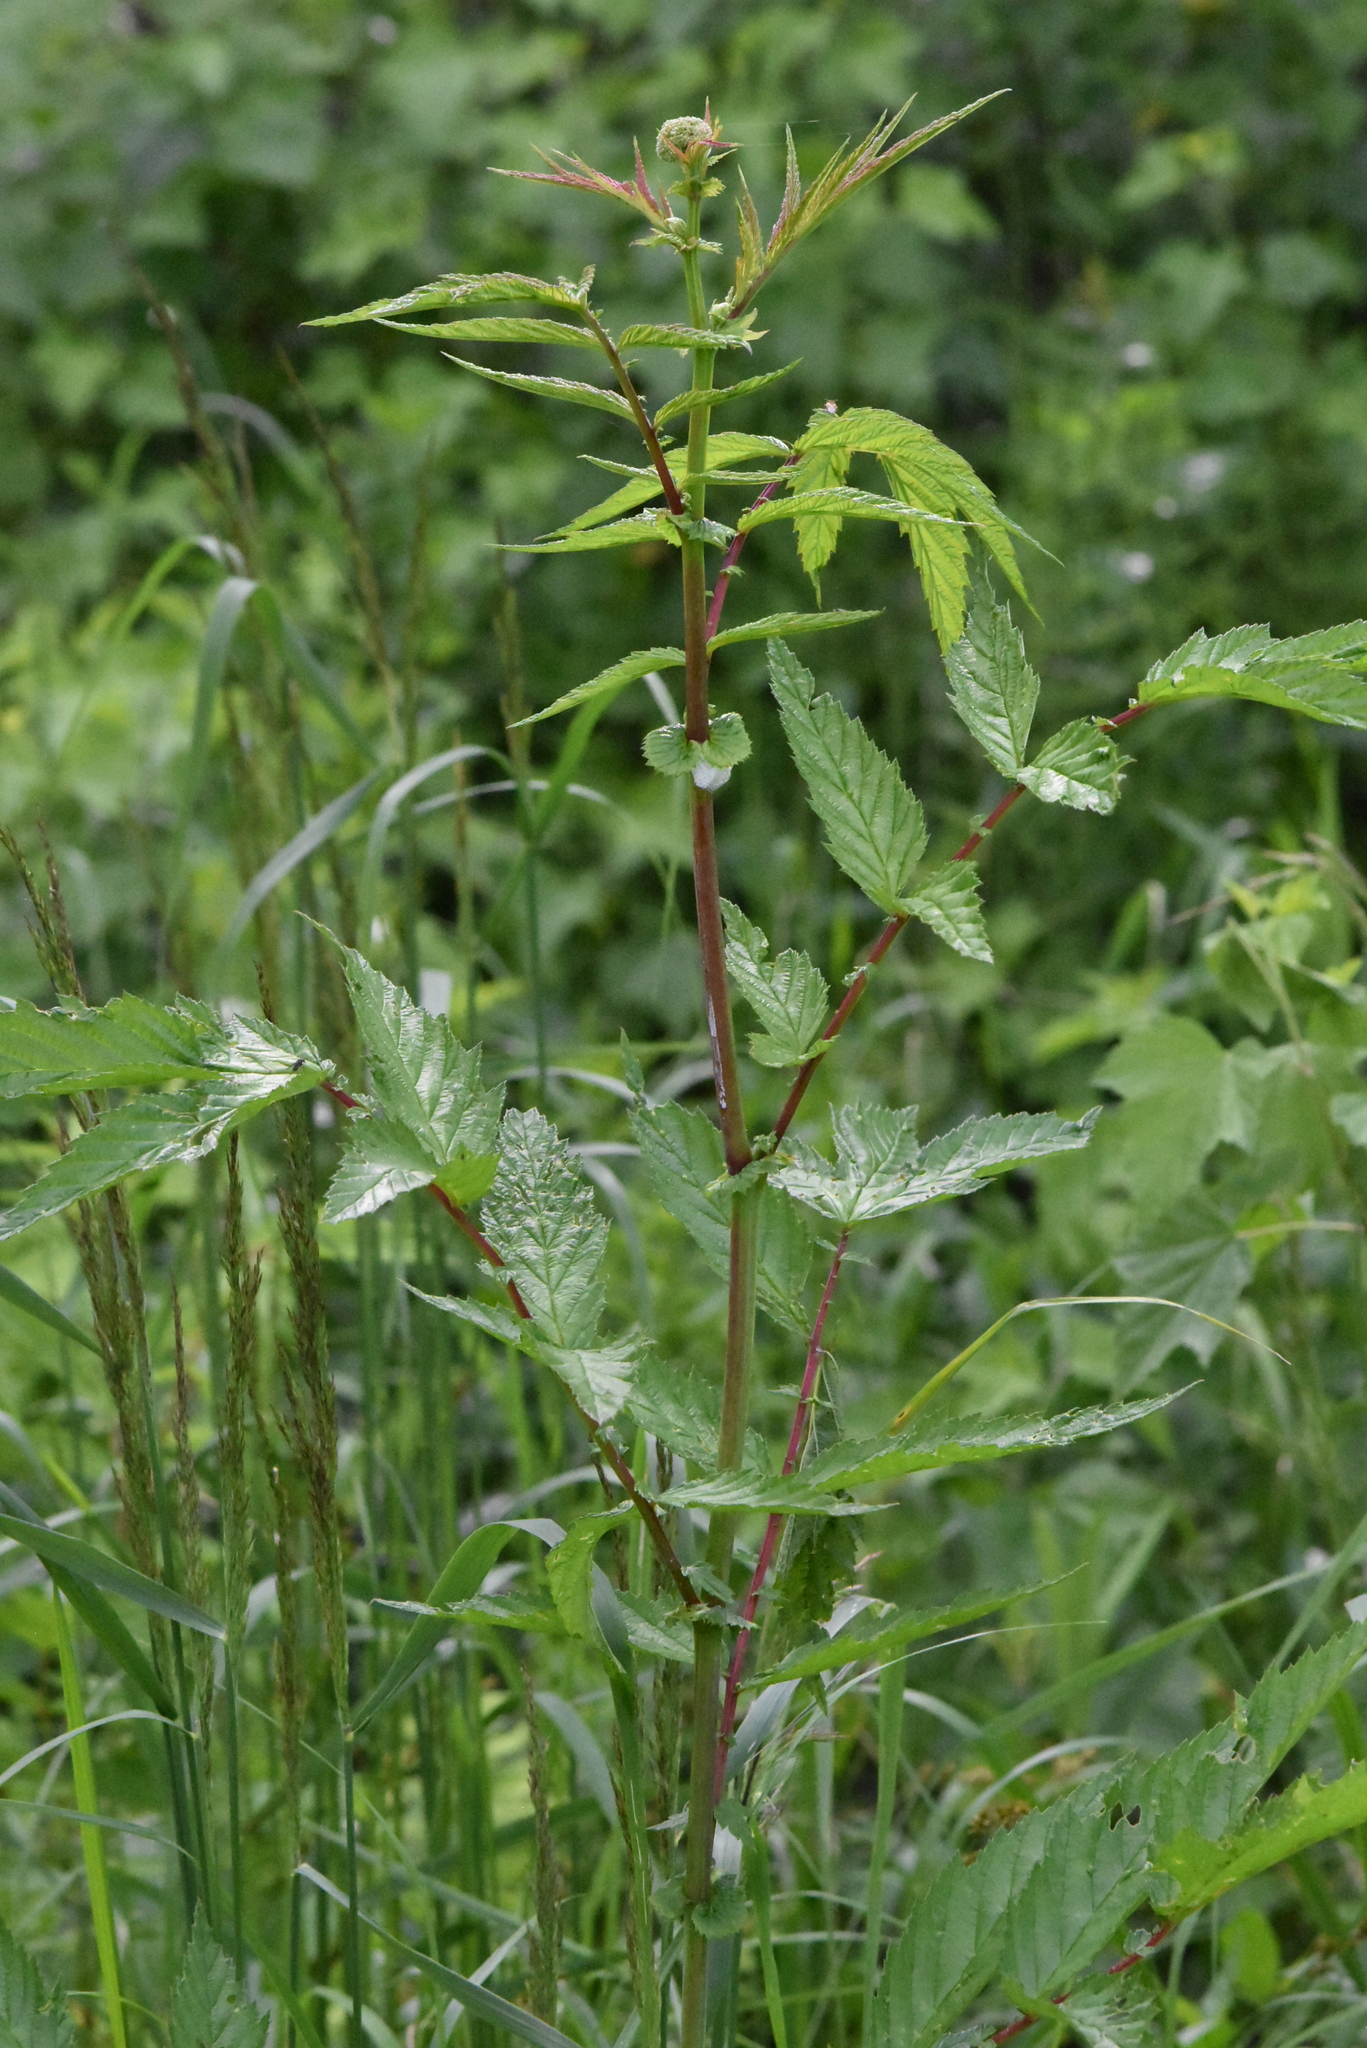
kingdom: Plantae
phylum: Tracheophyta
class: Magnoliopsida
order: Rosales
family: Rosaceae
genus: Filipendula
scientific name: Filipendula ulmaria
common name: Meadowsweet
